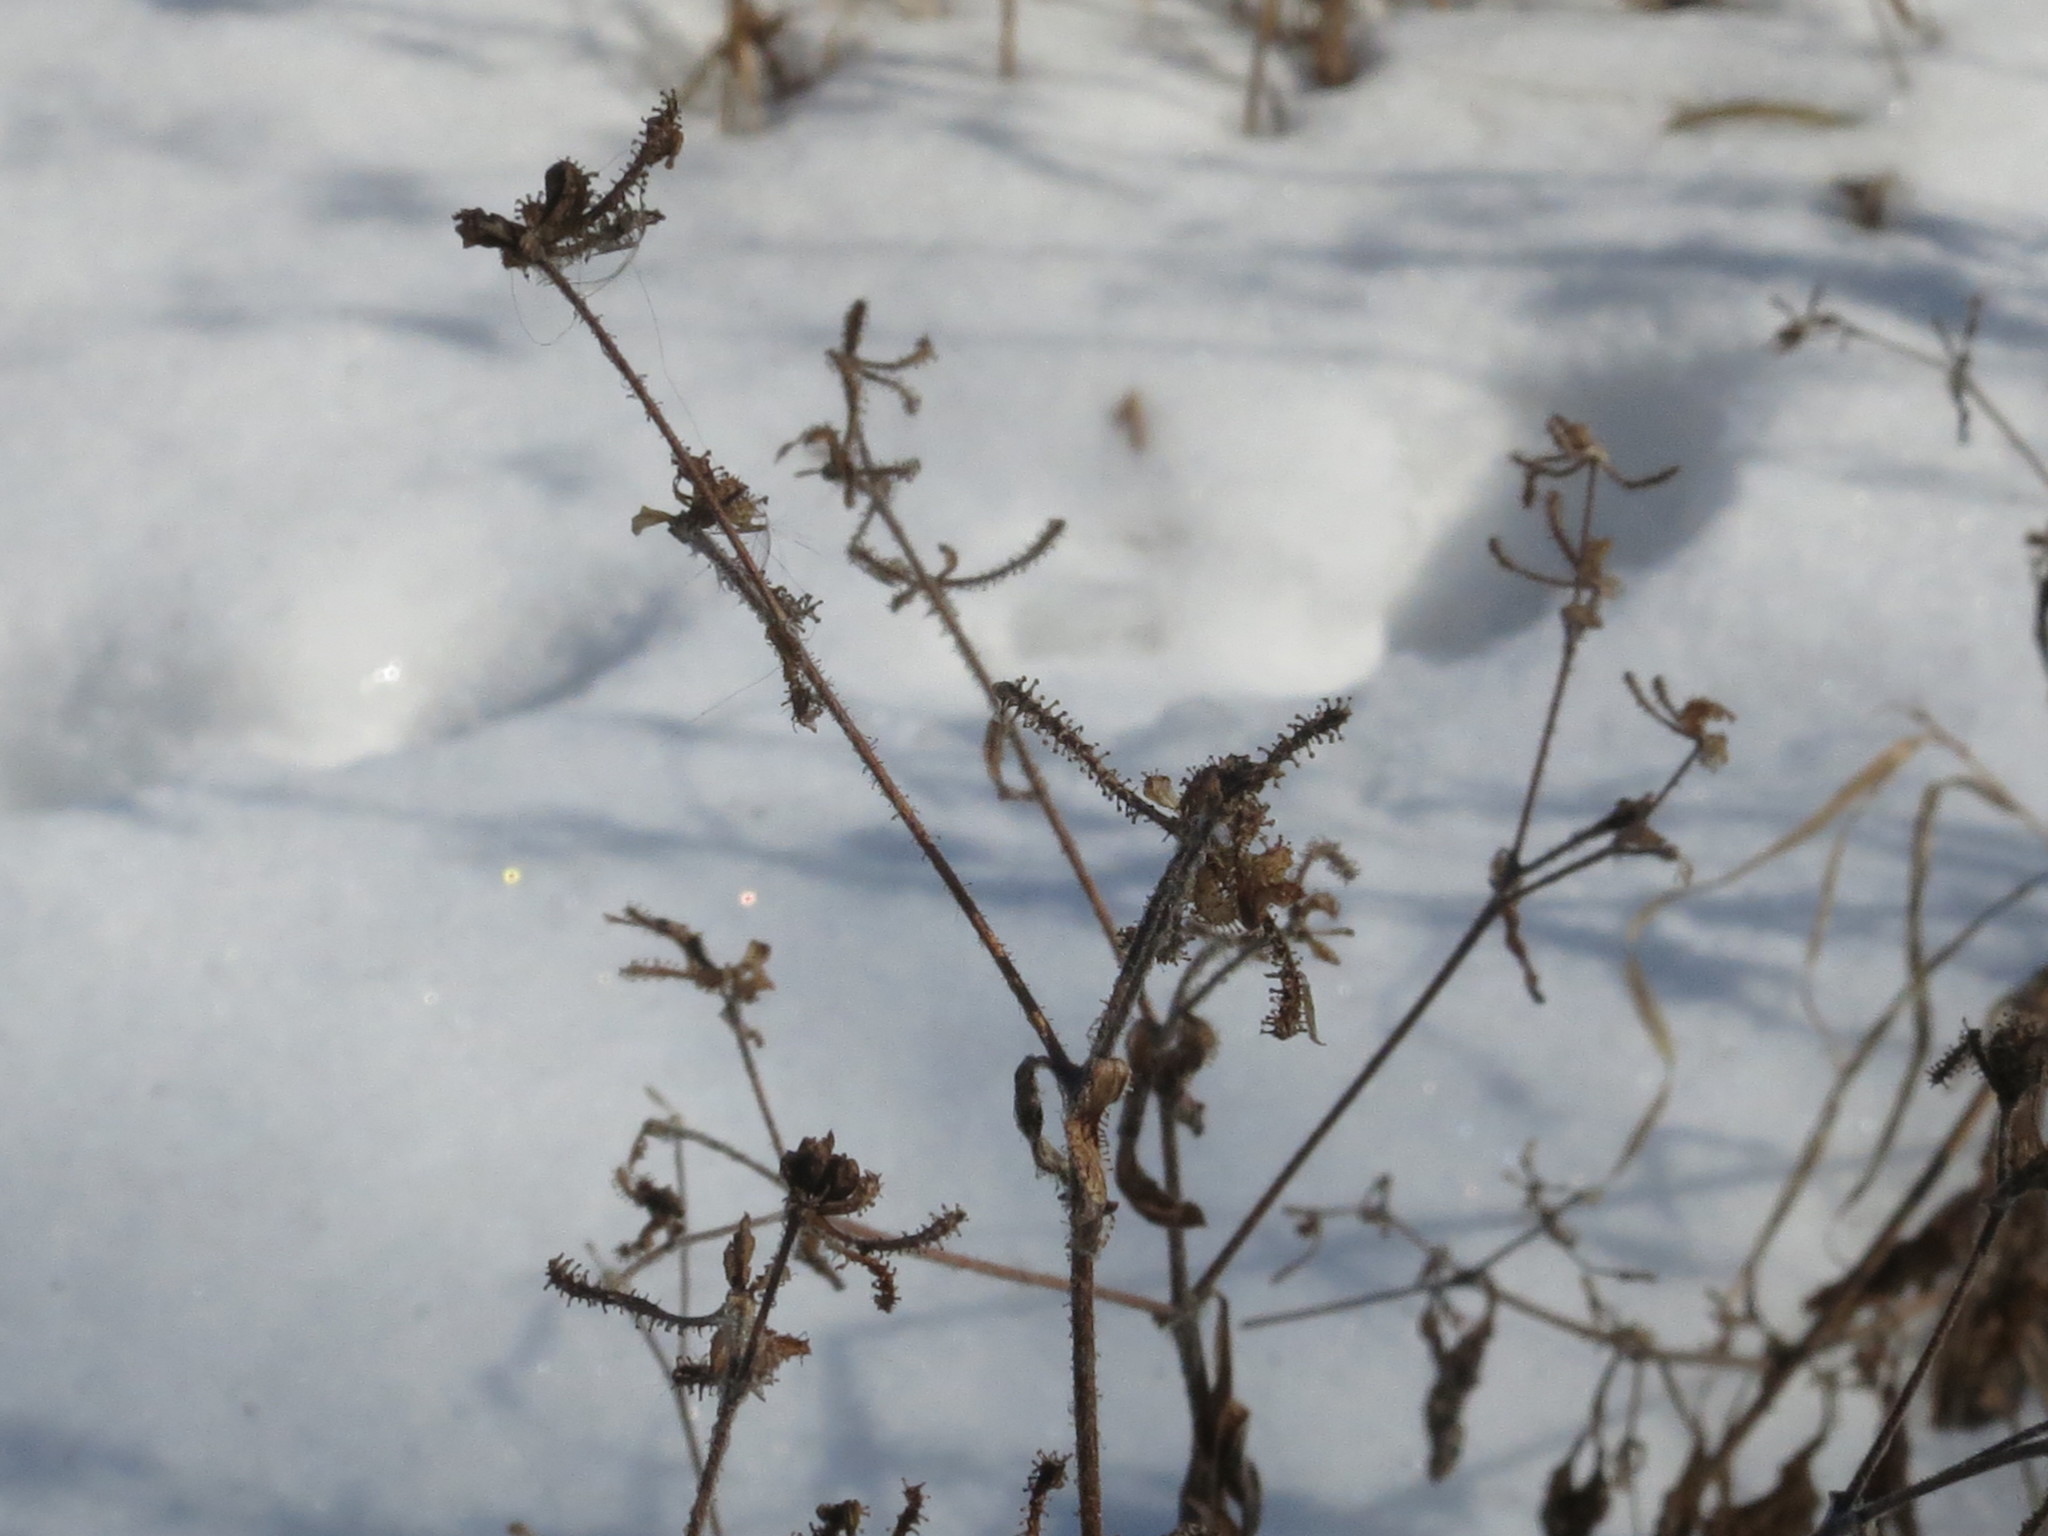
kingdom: Plantae
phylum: Tracheophyta
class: Magnoliopsida
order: Asterales
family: Asteraceae
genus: Adenocaulon
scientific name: Adenocaulon himalaicum
